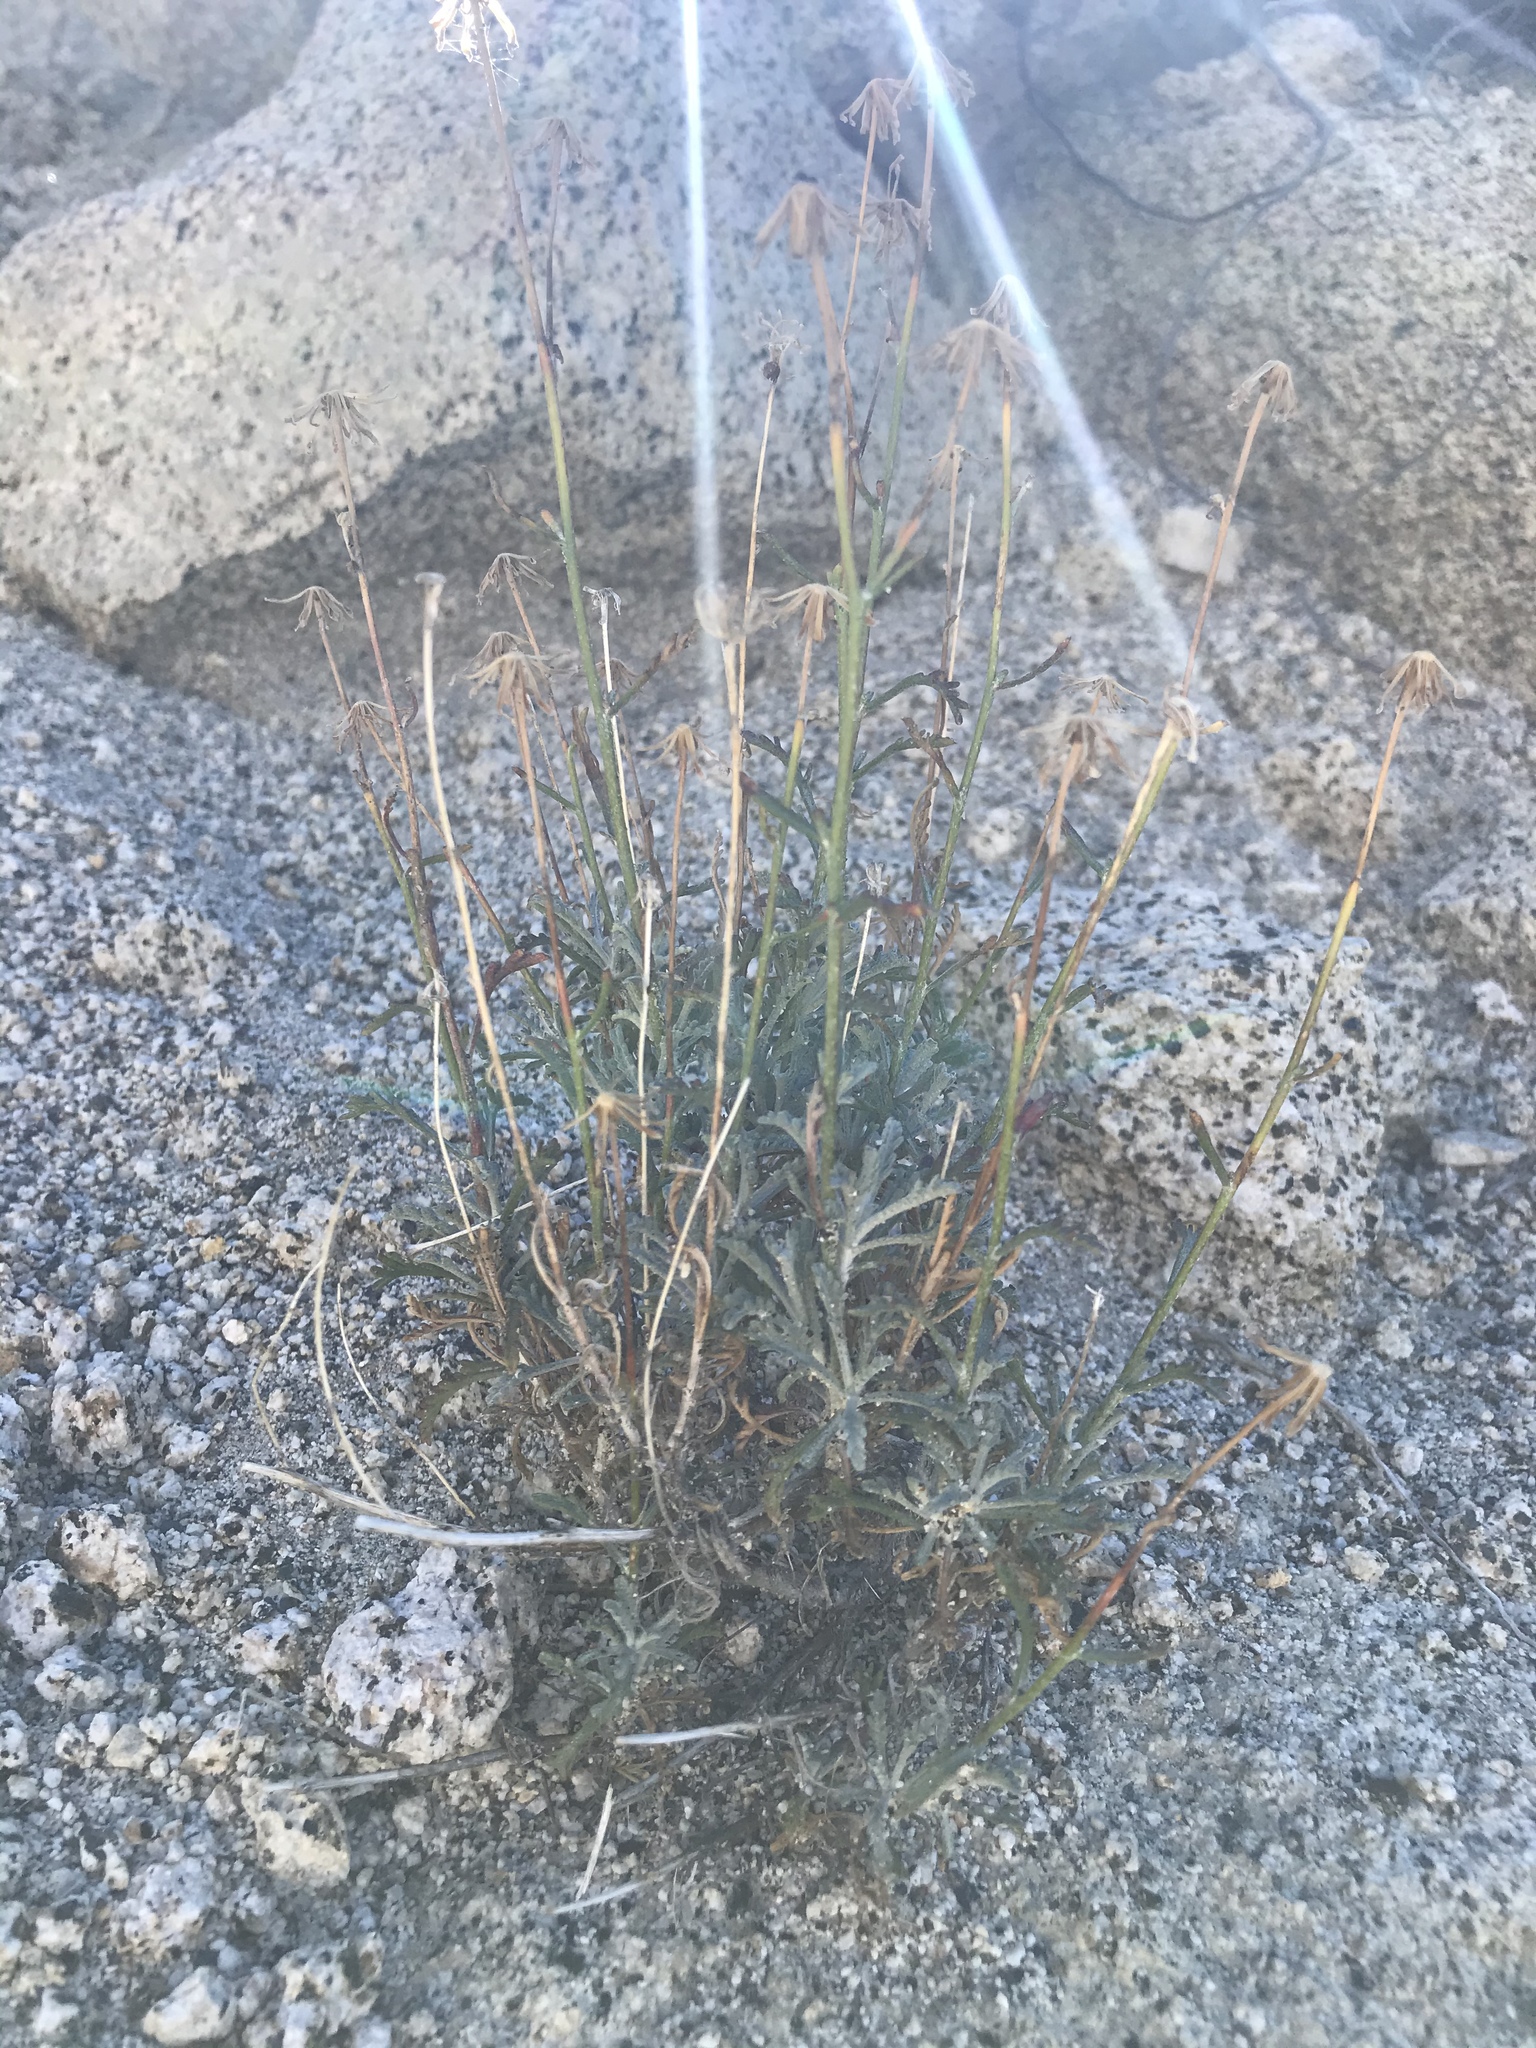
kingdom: Plantae
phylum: Tracheophyta
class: Magnoliopsida
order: Asterales
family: Asteraceae
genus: Chaenactis
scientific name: Chaenactis parishii
